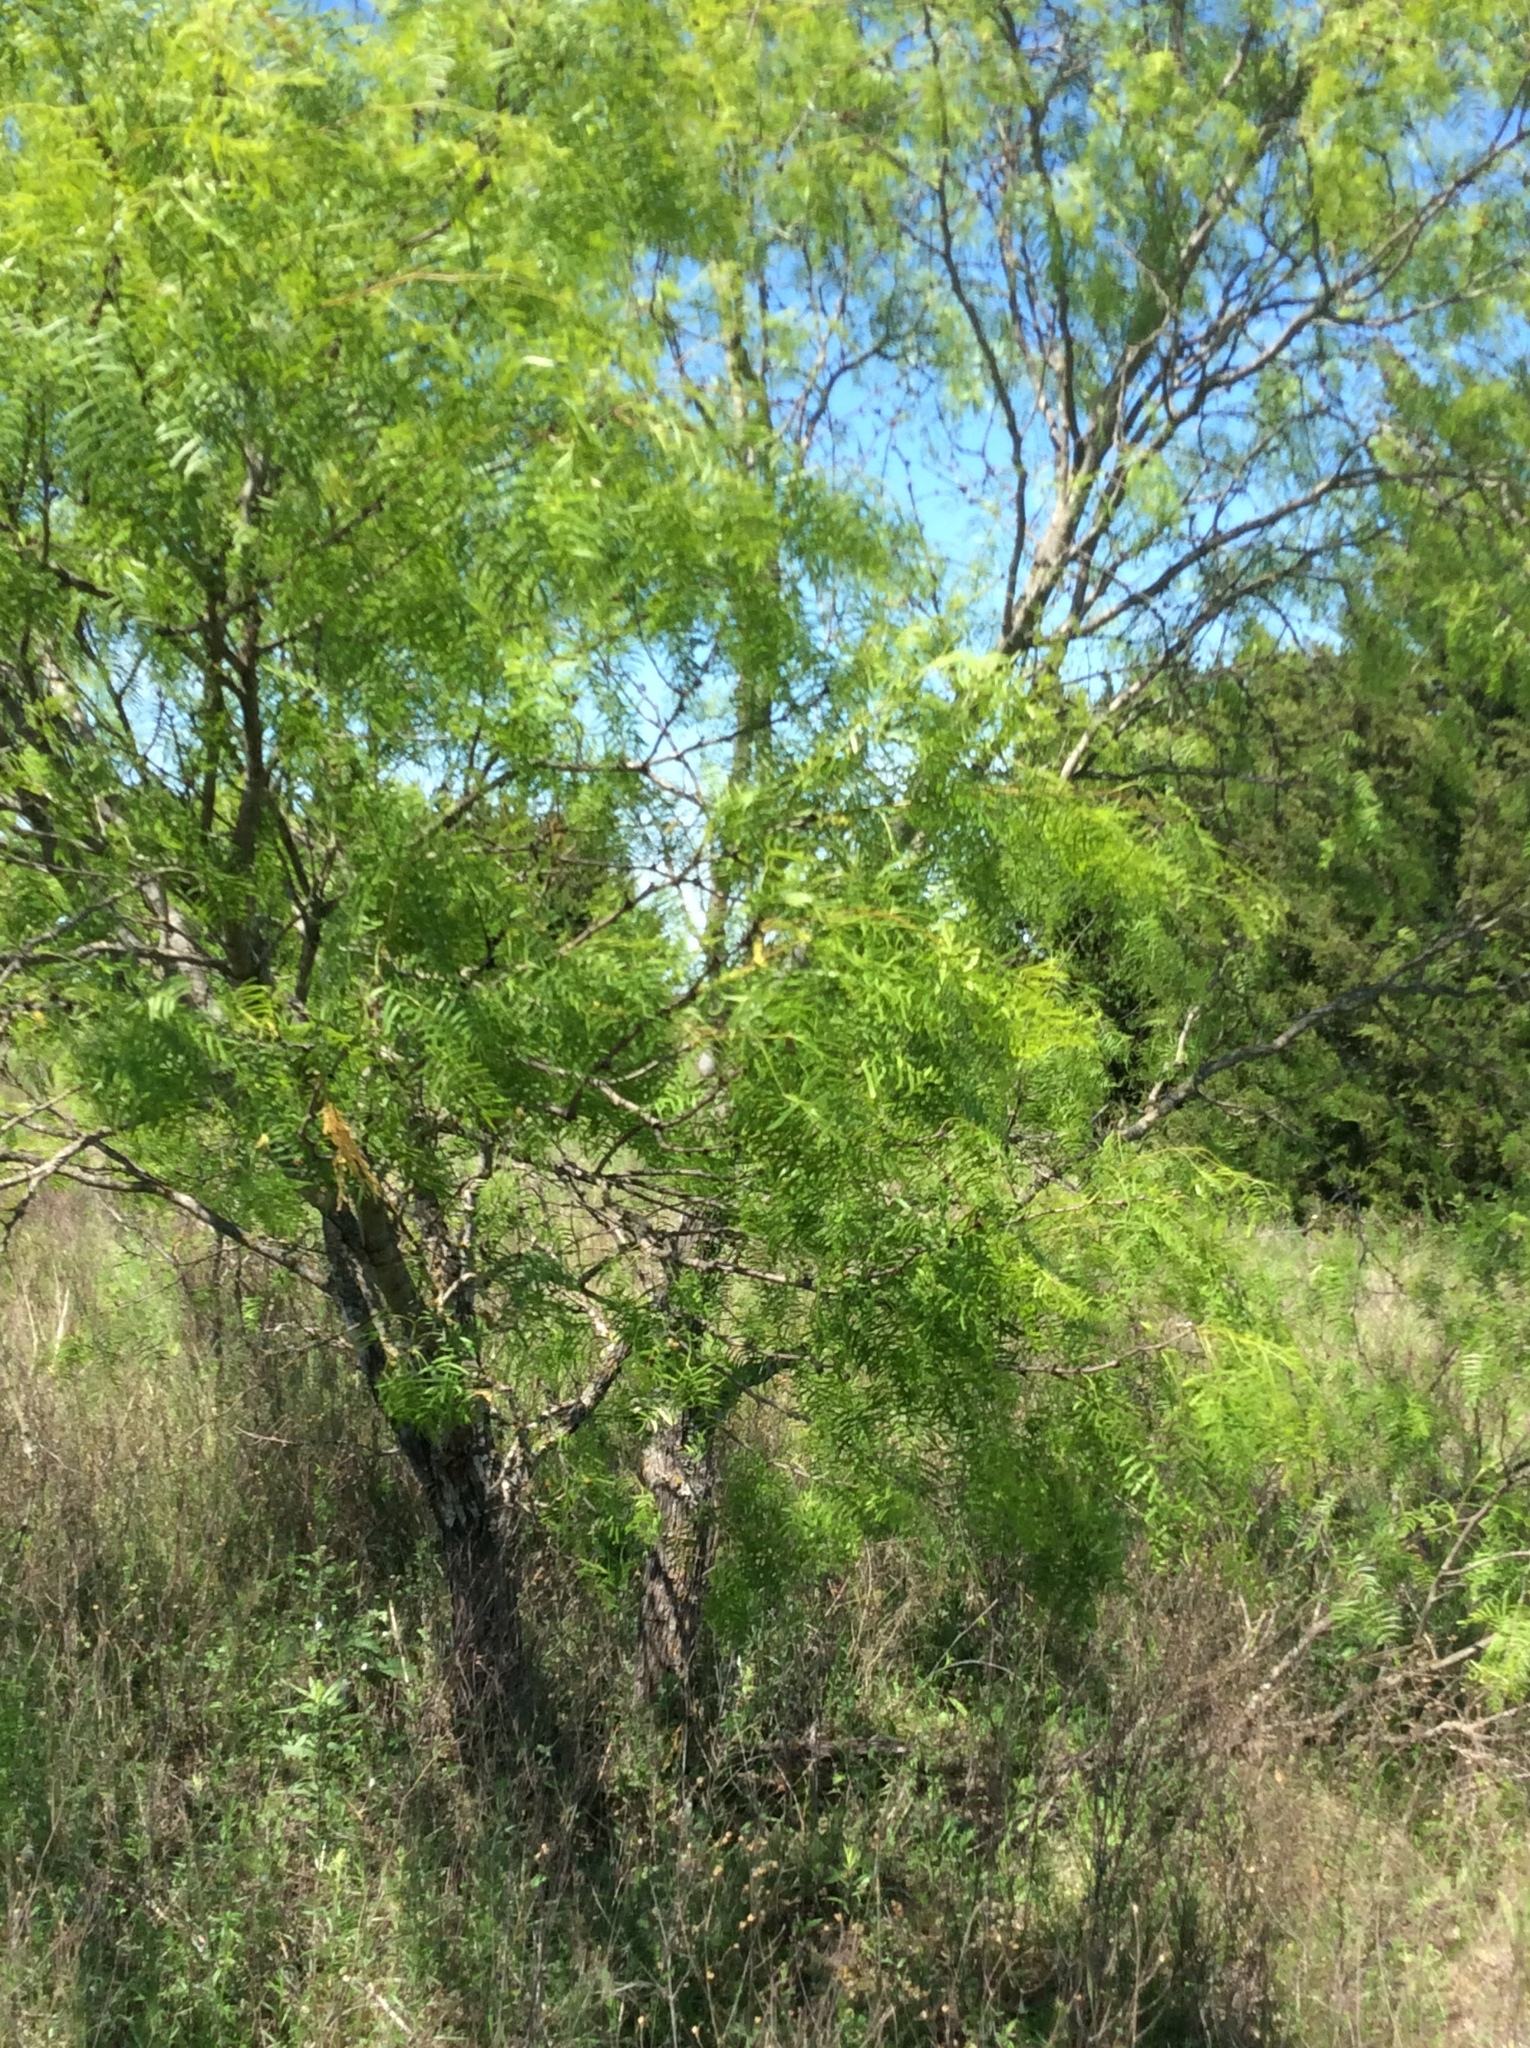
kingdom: Plantae
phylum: Tracheophyta
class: Magnoliopsida
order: Fabales
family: Fabaceae
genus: Prosopis
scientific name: Prosopis glandulosa
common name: Honey mesquite
